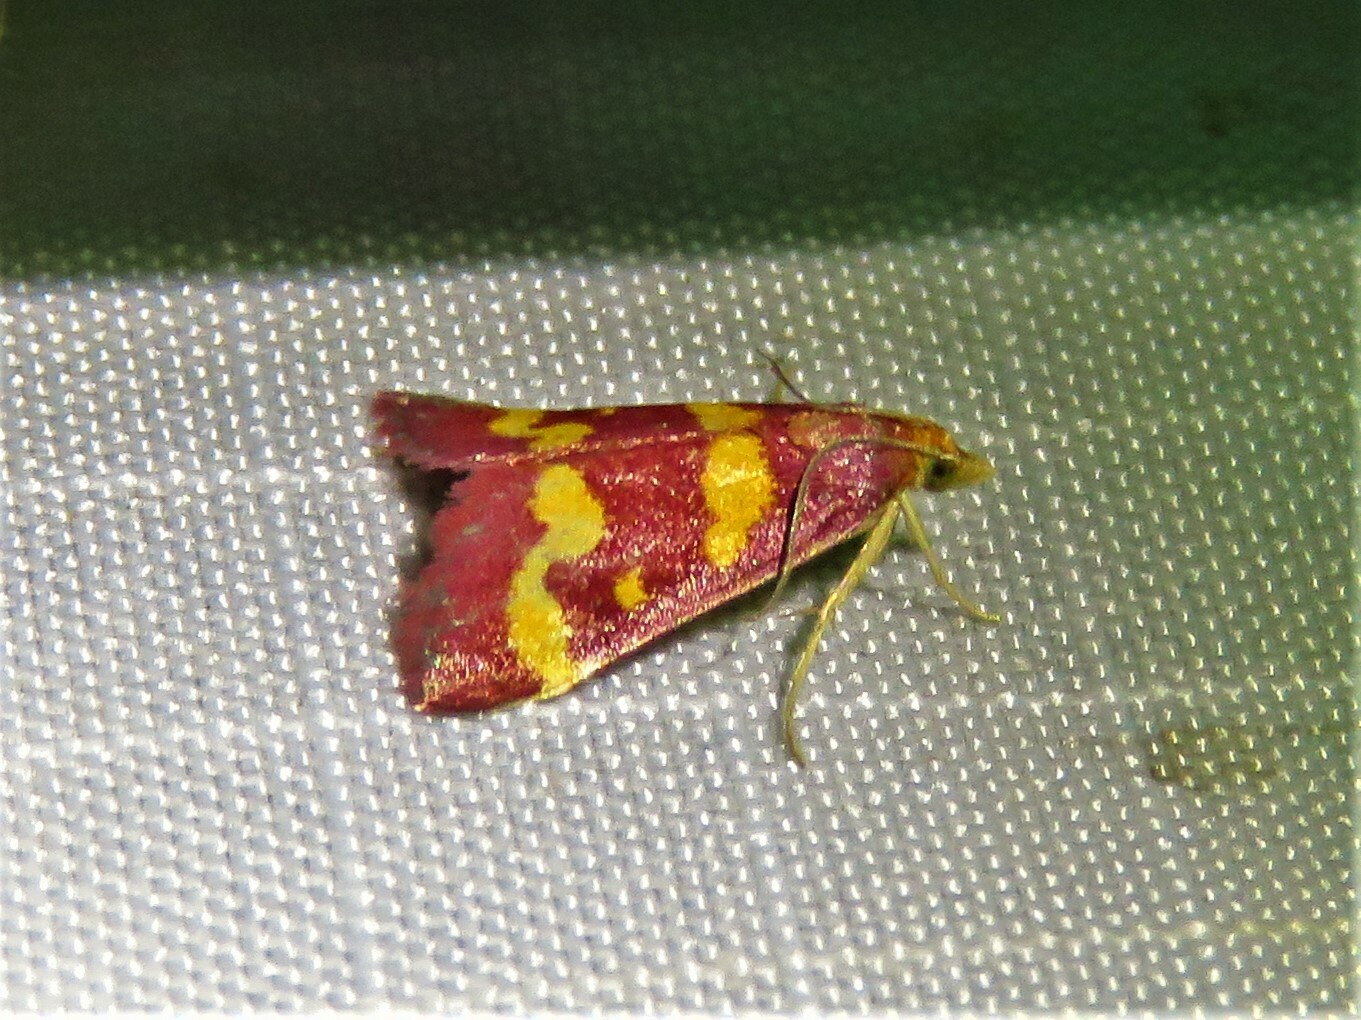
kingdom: Animalia
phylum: Arthropoda
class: Insecta
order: Lepidoptera
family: Crambidae
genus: Pyrausta
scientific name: Pyrausta tyralis
